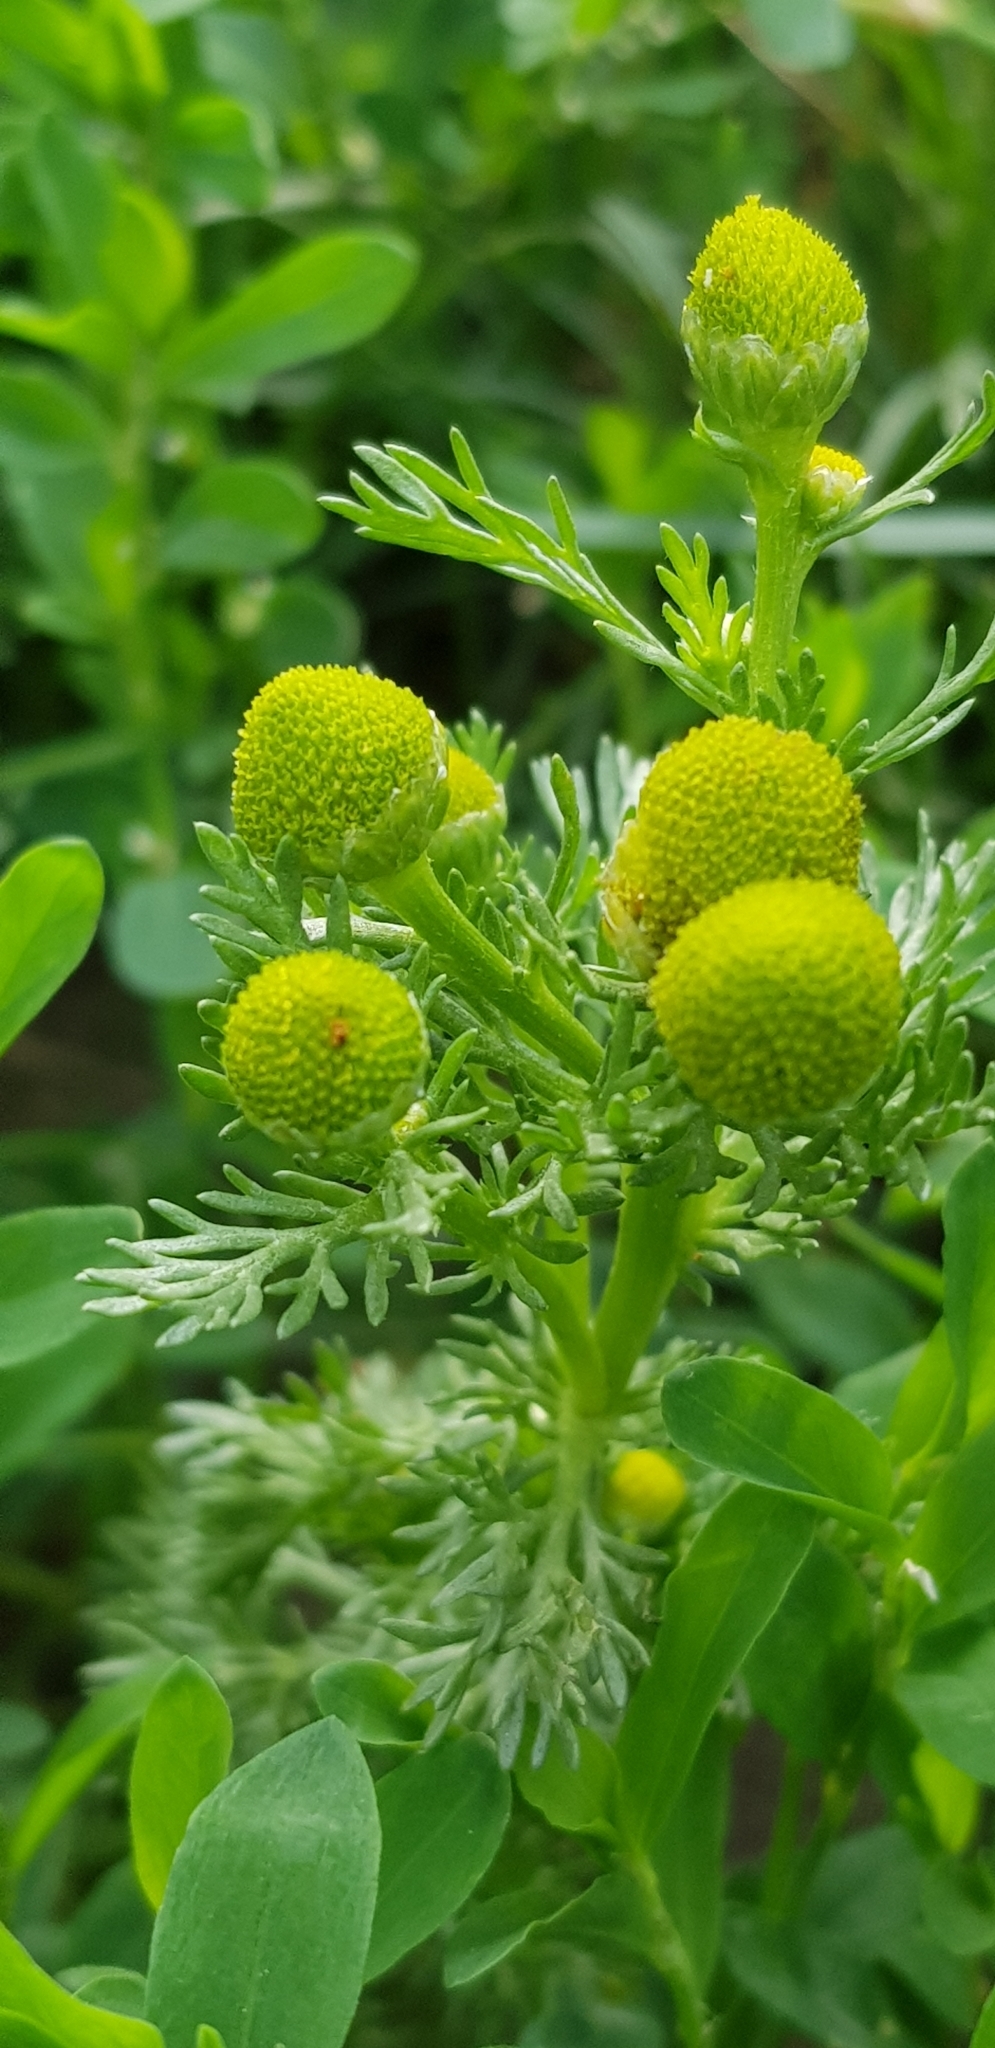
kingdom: Plantae
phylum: Tracheophyta
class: Magnoliopsida
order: Asterales
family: Asteraceae
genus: Matricaria
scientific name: Matricaria discoidea
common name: Disc mayweed
